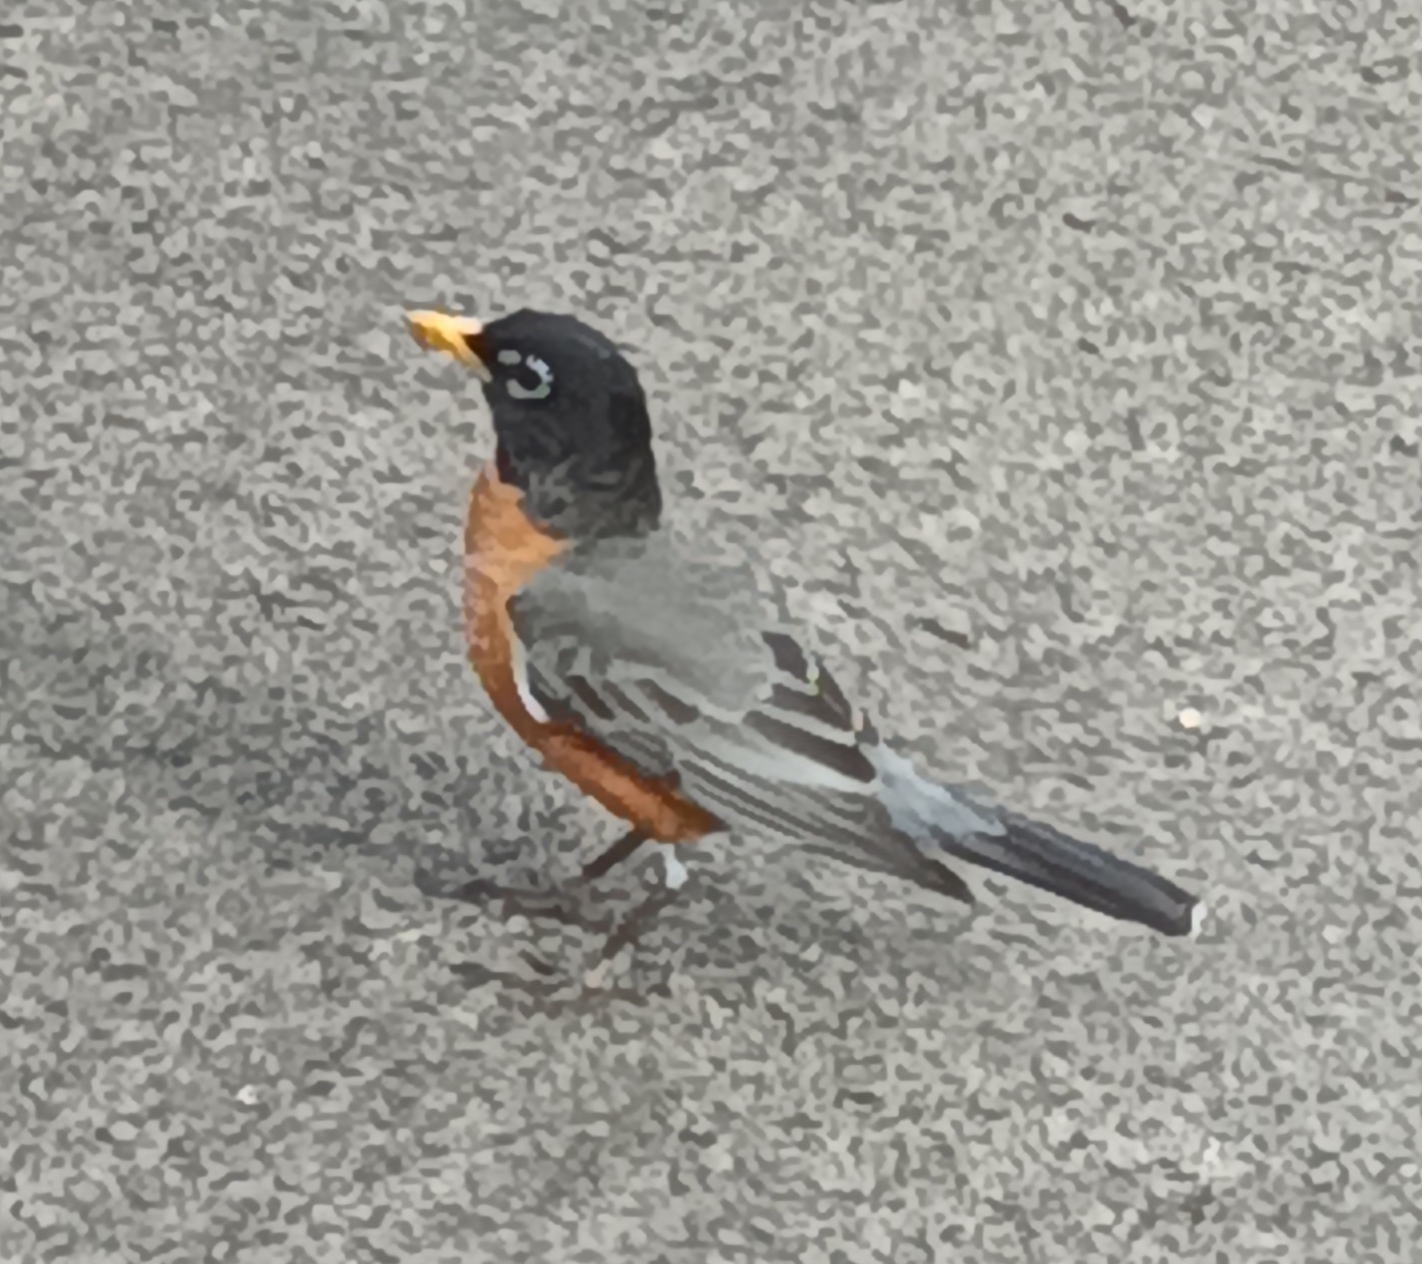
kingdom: Animalia
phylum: Chordata
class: Aves
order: Passeriformes
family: Turdidae
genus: Turdus
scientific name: Turdus migratorius
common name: American robin
